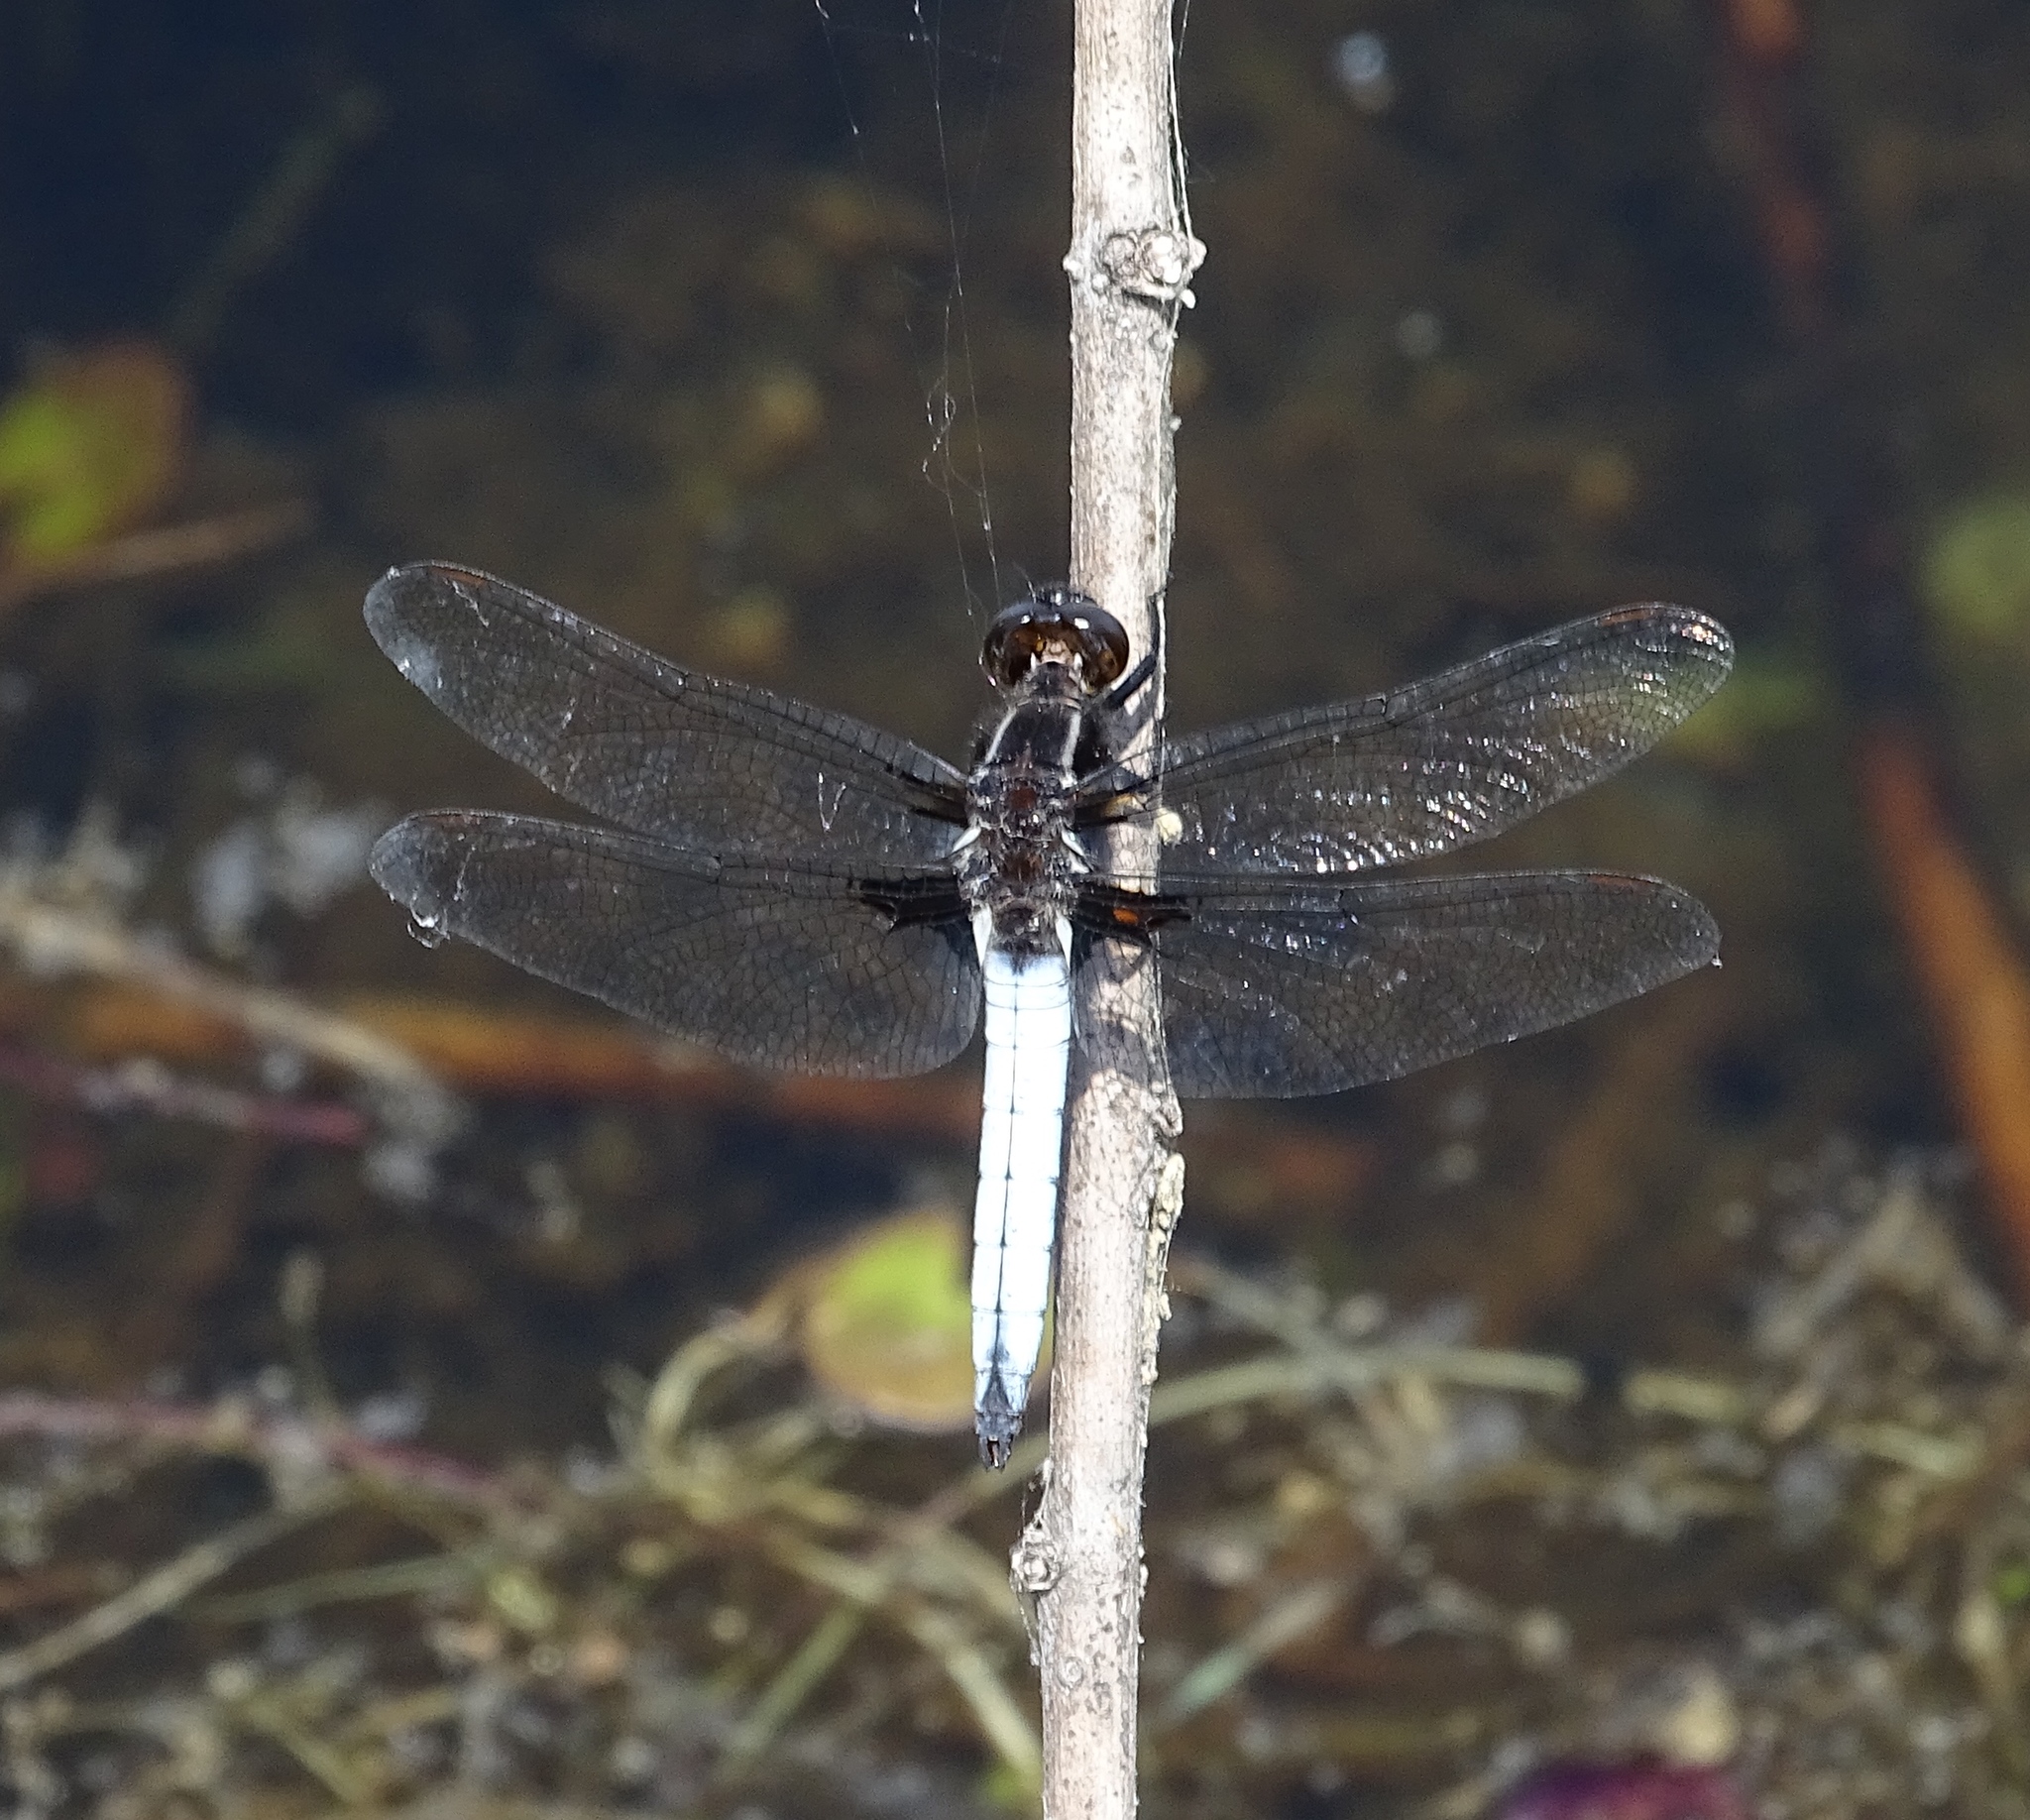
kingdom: Animalia
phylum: Arthropoda
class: Insecta
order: Odonata
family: Libellulidae
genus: Ladona
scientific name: Ladona exusta
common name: Libellule embrasée
